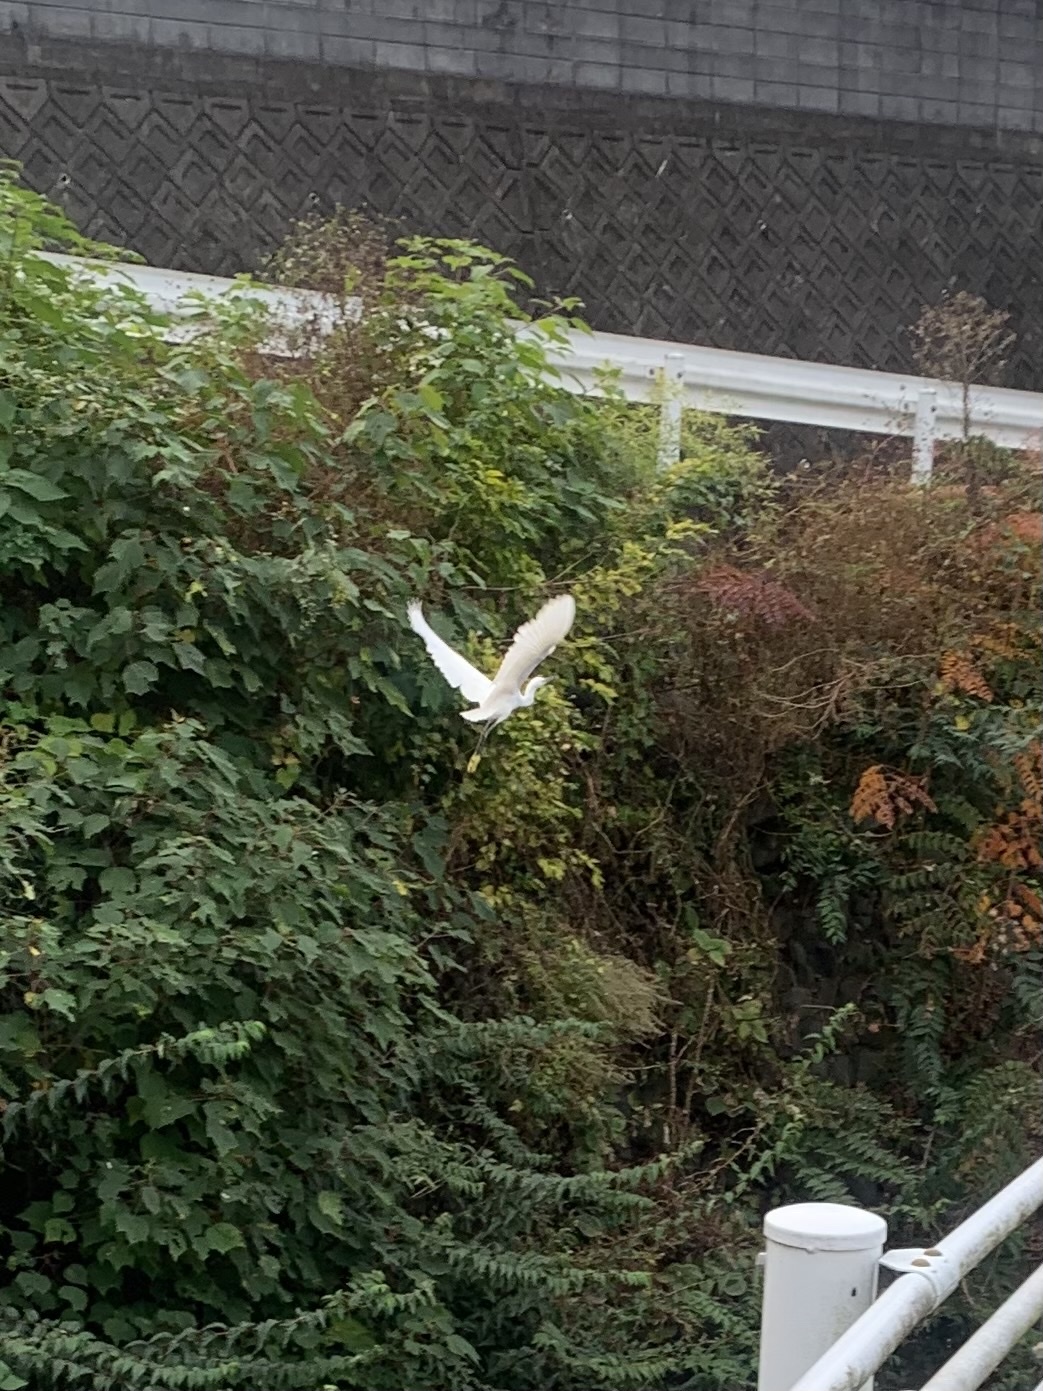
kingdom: Animalia
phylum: Chordata
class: Aves
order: Pelecaniformes
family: Ardeidae
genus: Egretta
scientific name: Egretta garzetta
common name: Little egret
